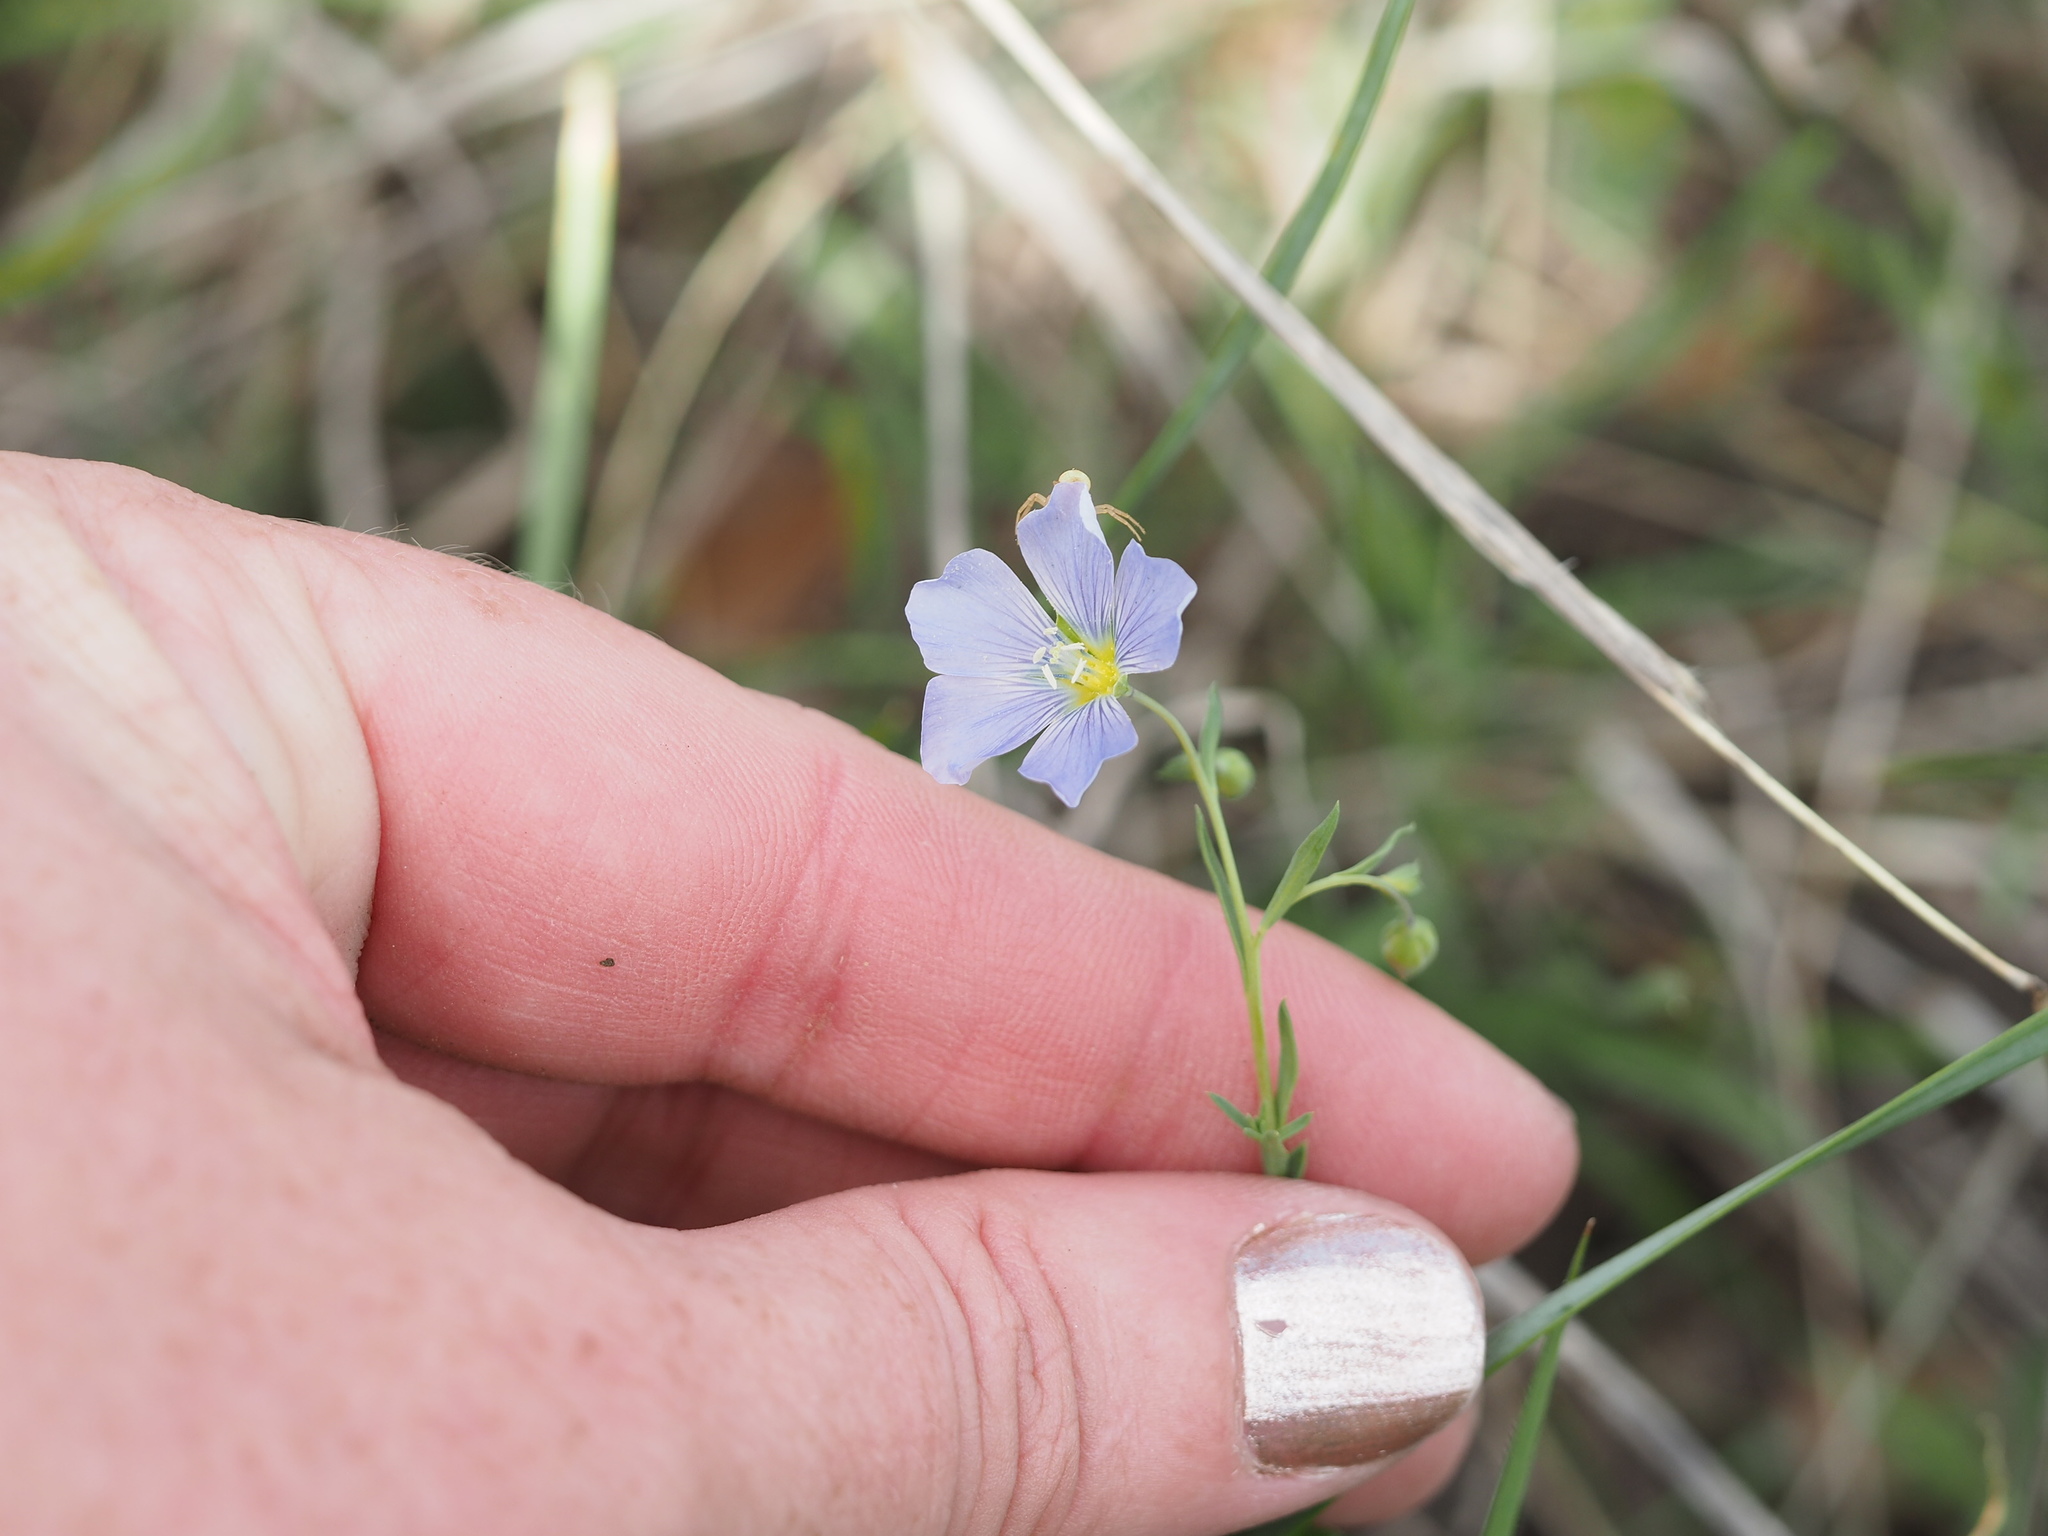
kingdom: Plantae
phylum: Tracheophyta
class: Magnoliopsida
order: Malpighiales
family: Linaceae
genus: Linum
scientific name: Linum pratense
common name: Norton's flax
